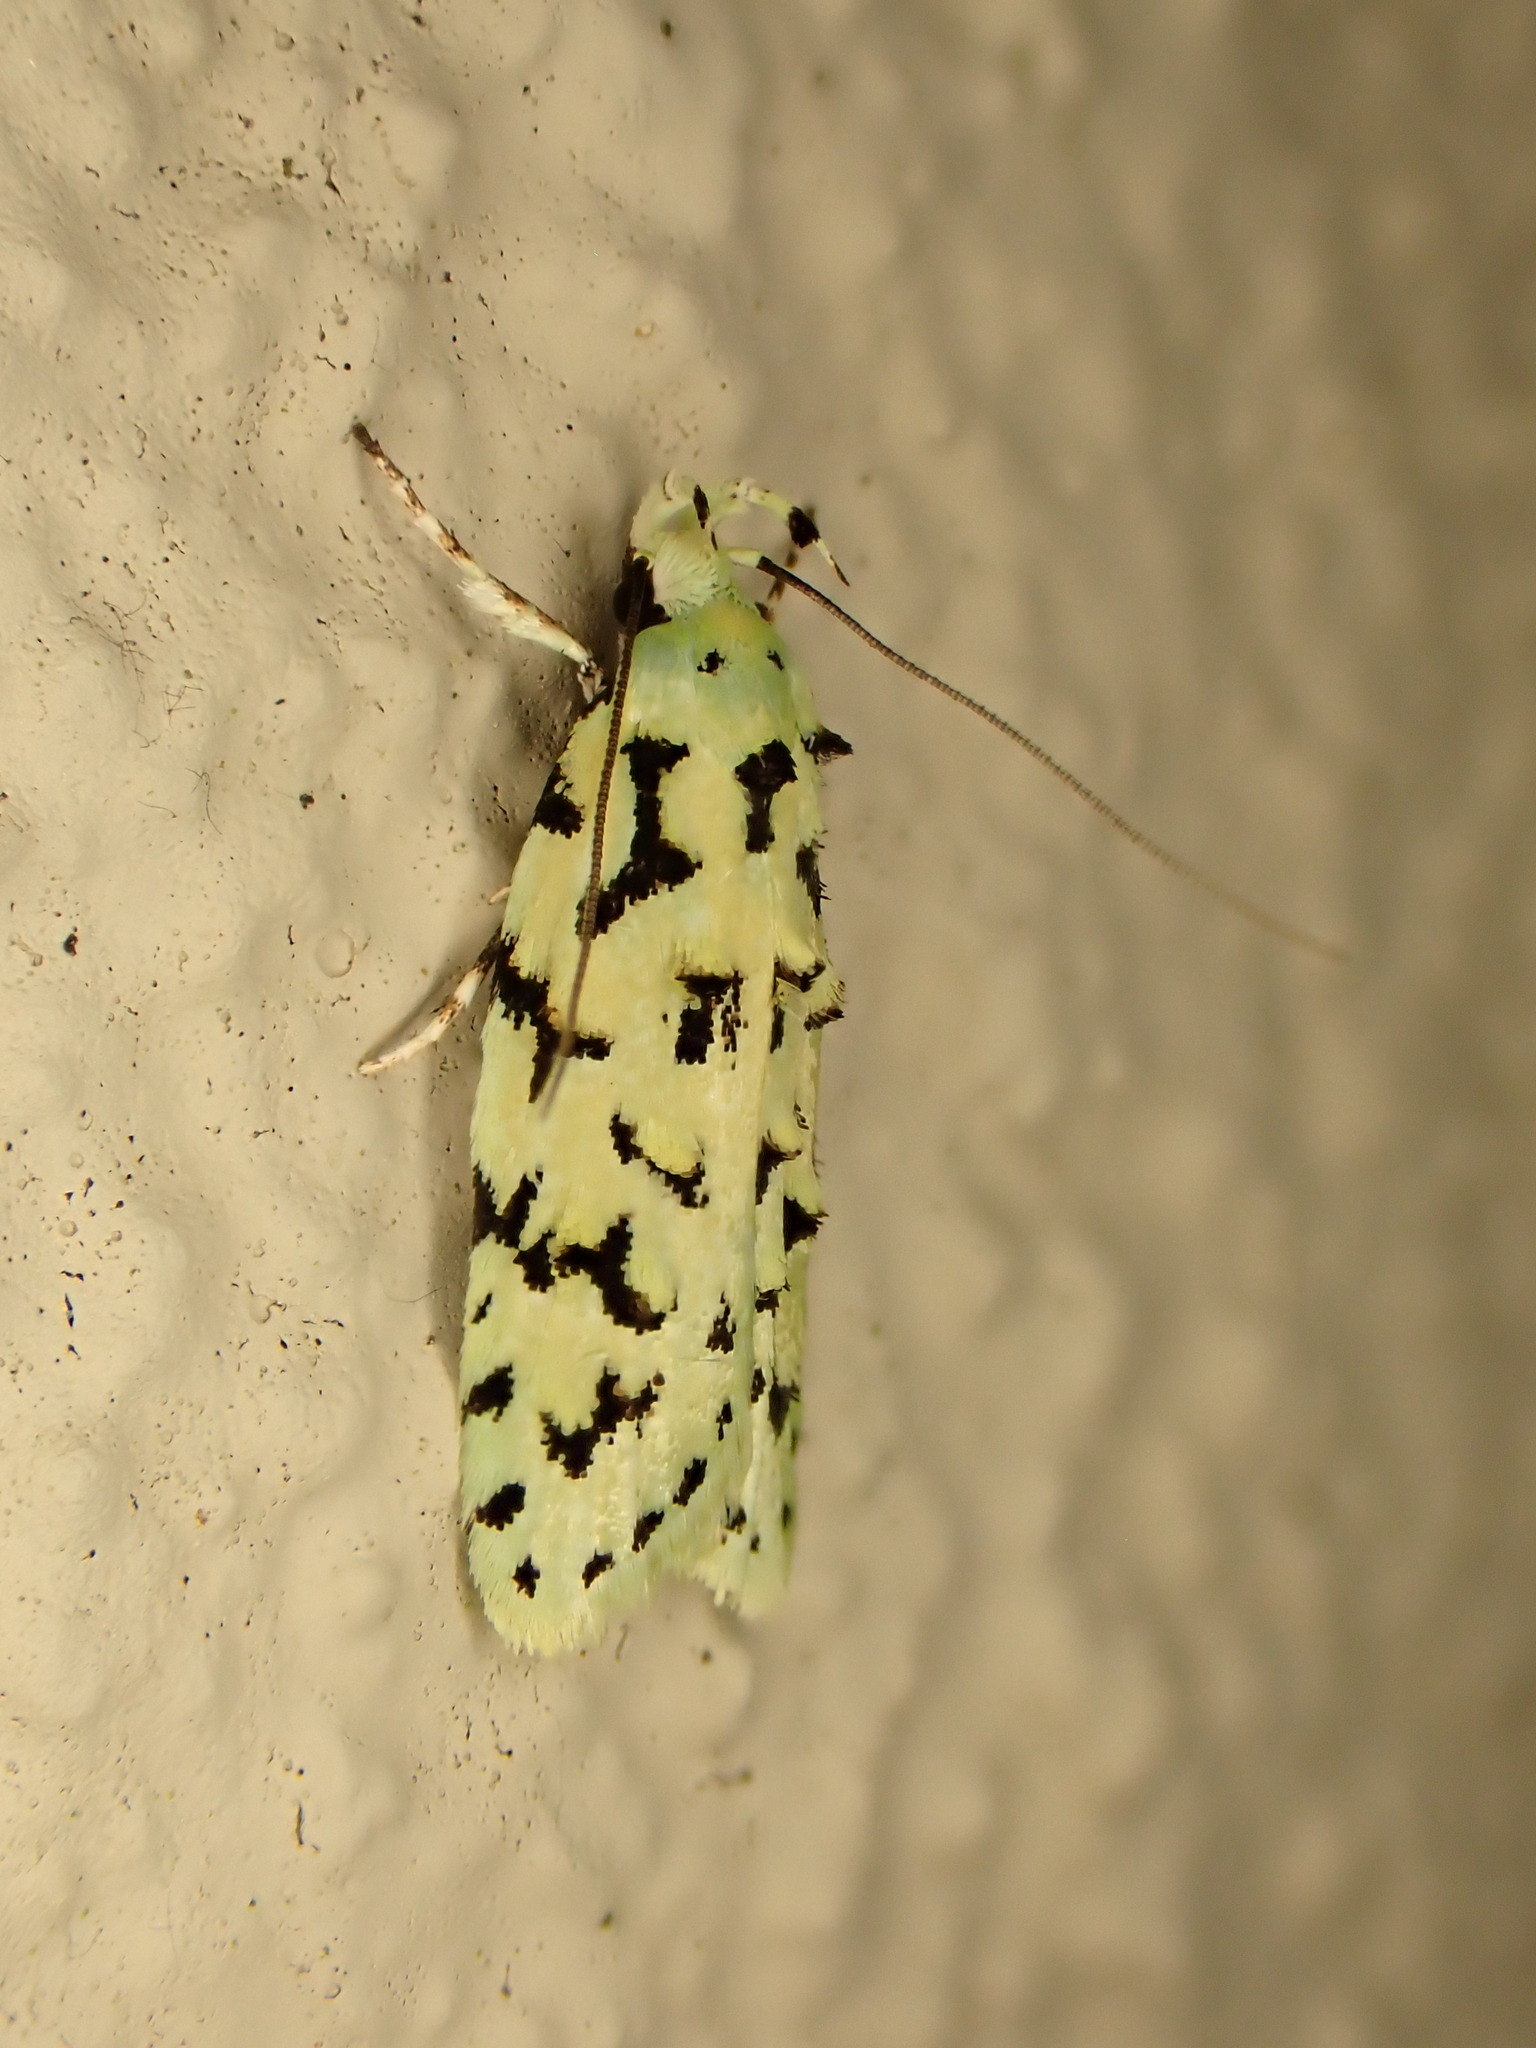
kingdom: Animalia
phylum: Arthropoda
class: Insecta
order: Lepidoptera
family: Oecophoridae
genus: Izatha
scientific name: Izatha peroneanella
